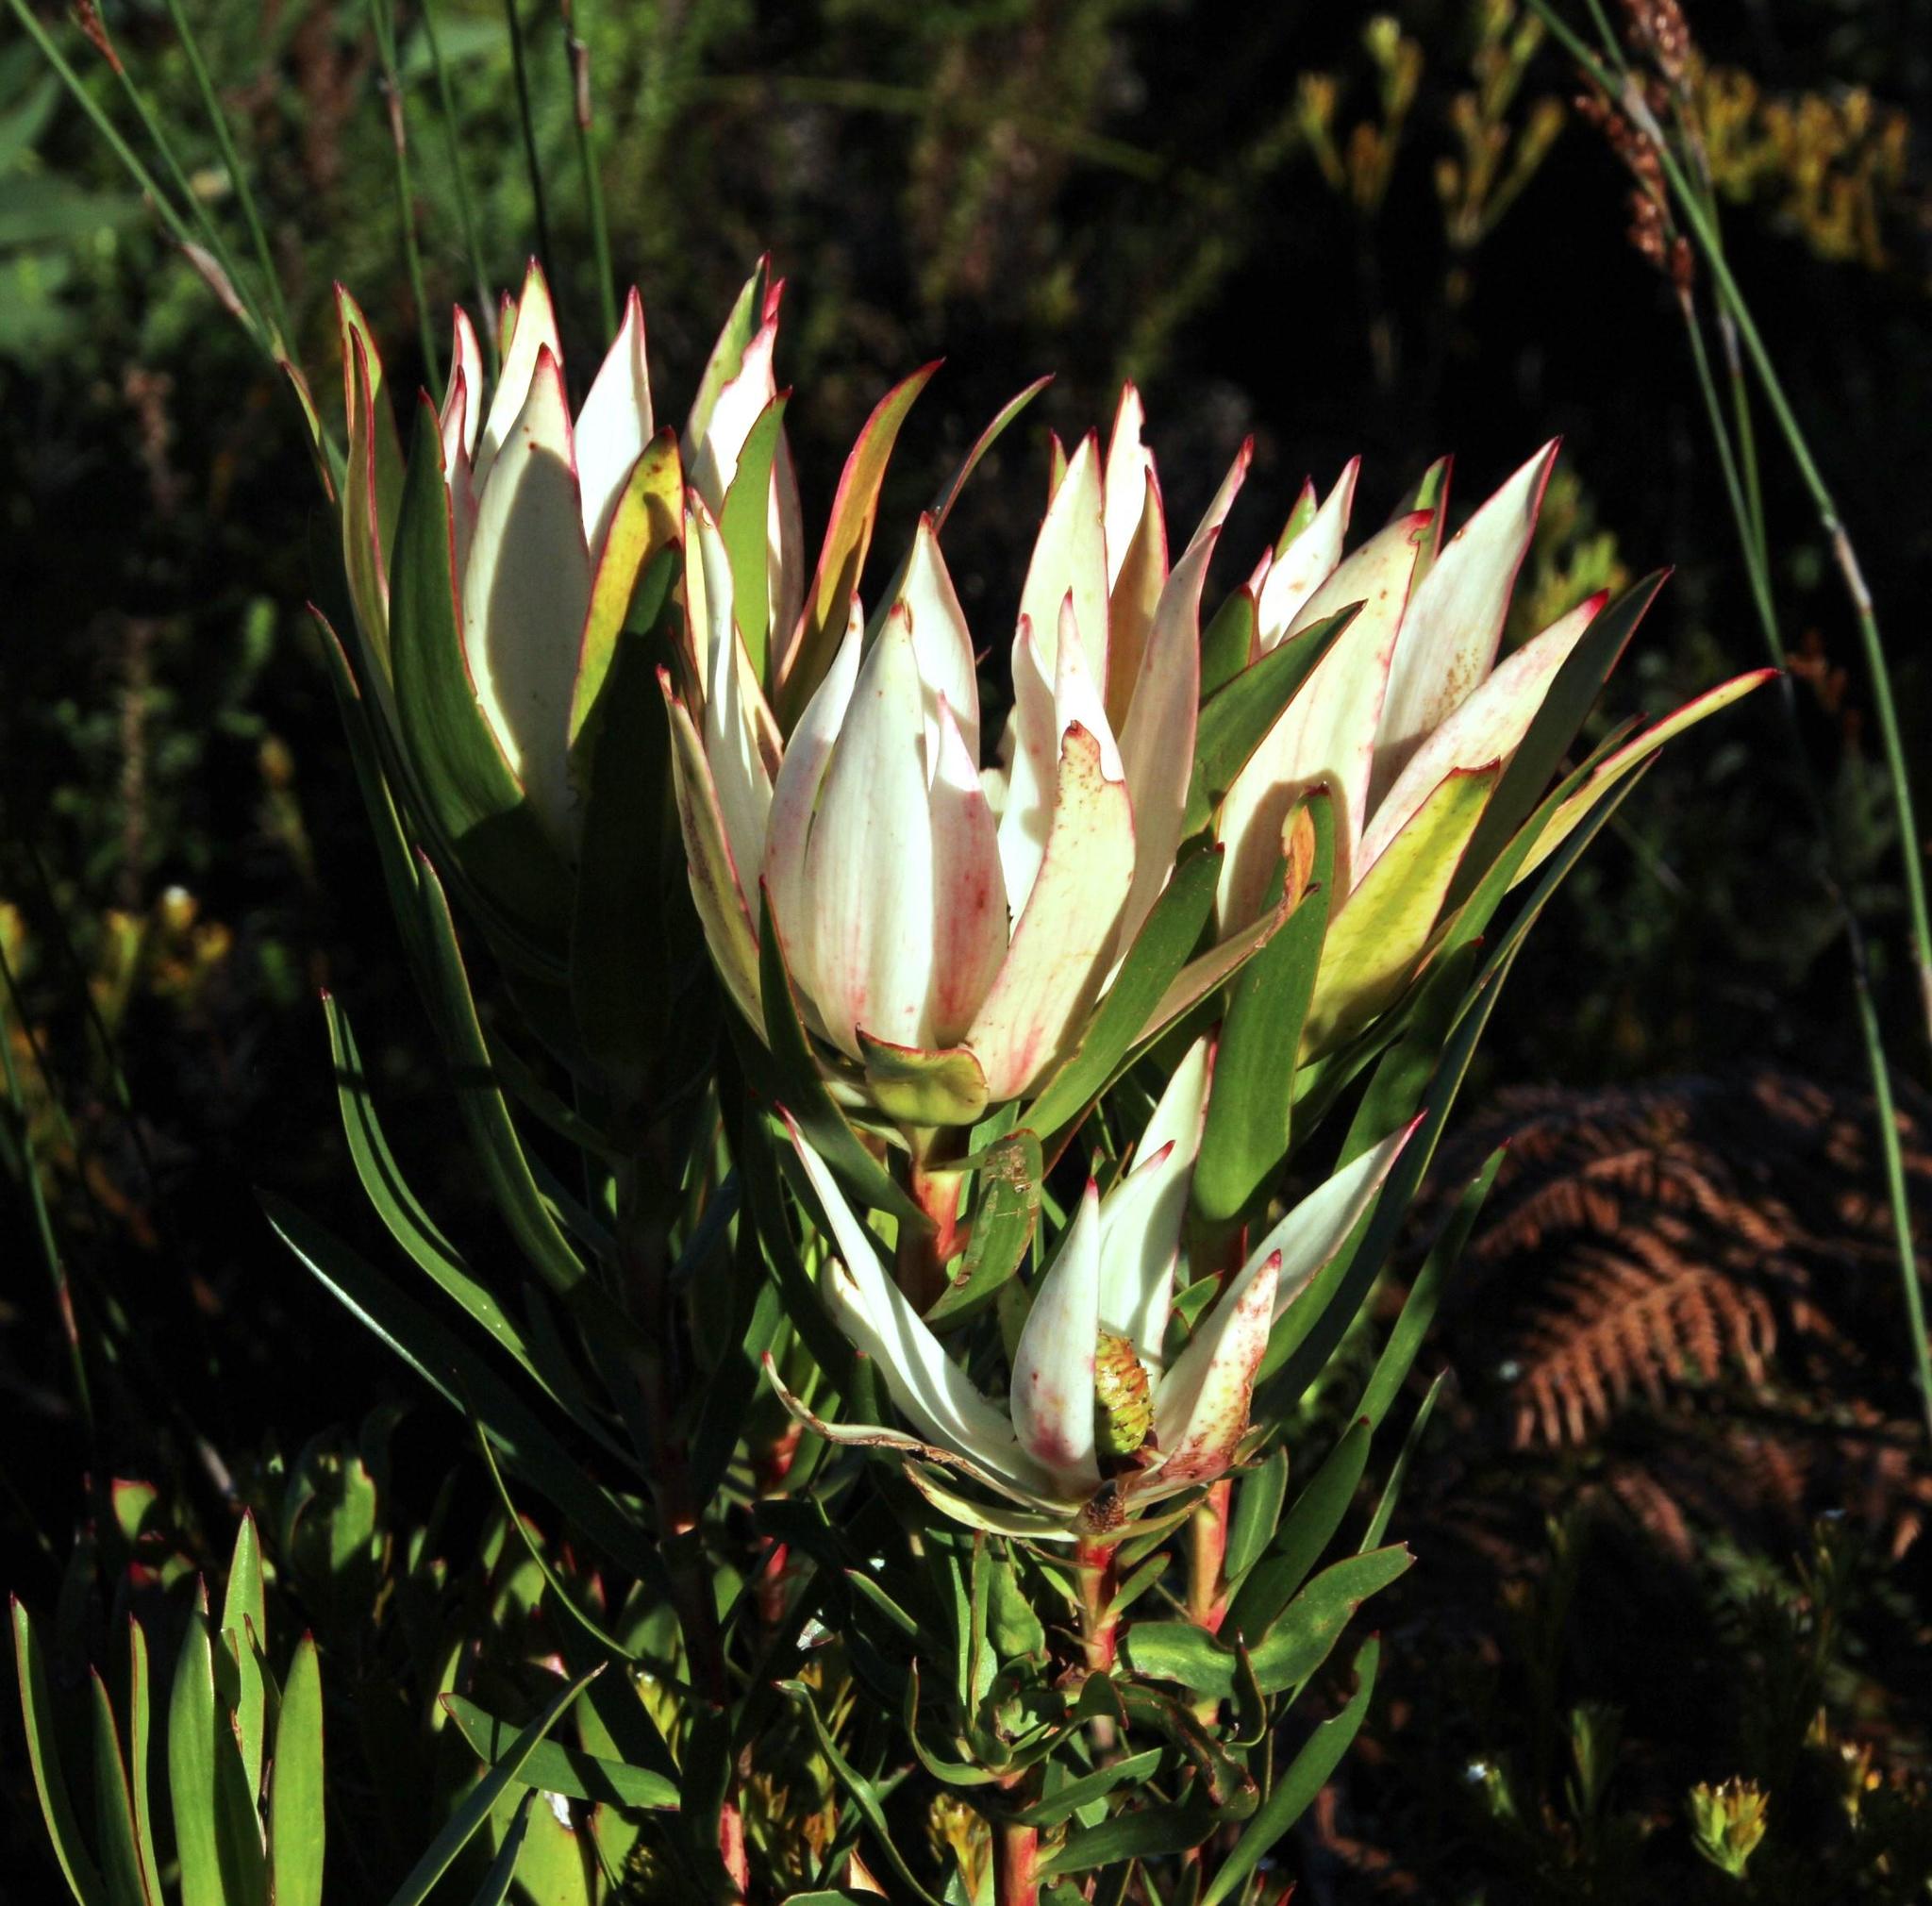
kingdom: Plantae
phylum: Tracheophyta
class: Magnoliopsida
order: Proteales
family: Proteaceae
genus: Leucadendron
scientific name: Leucadendron spissifolium
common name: Spear-leaf conebush
